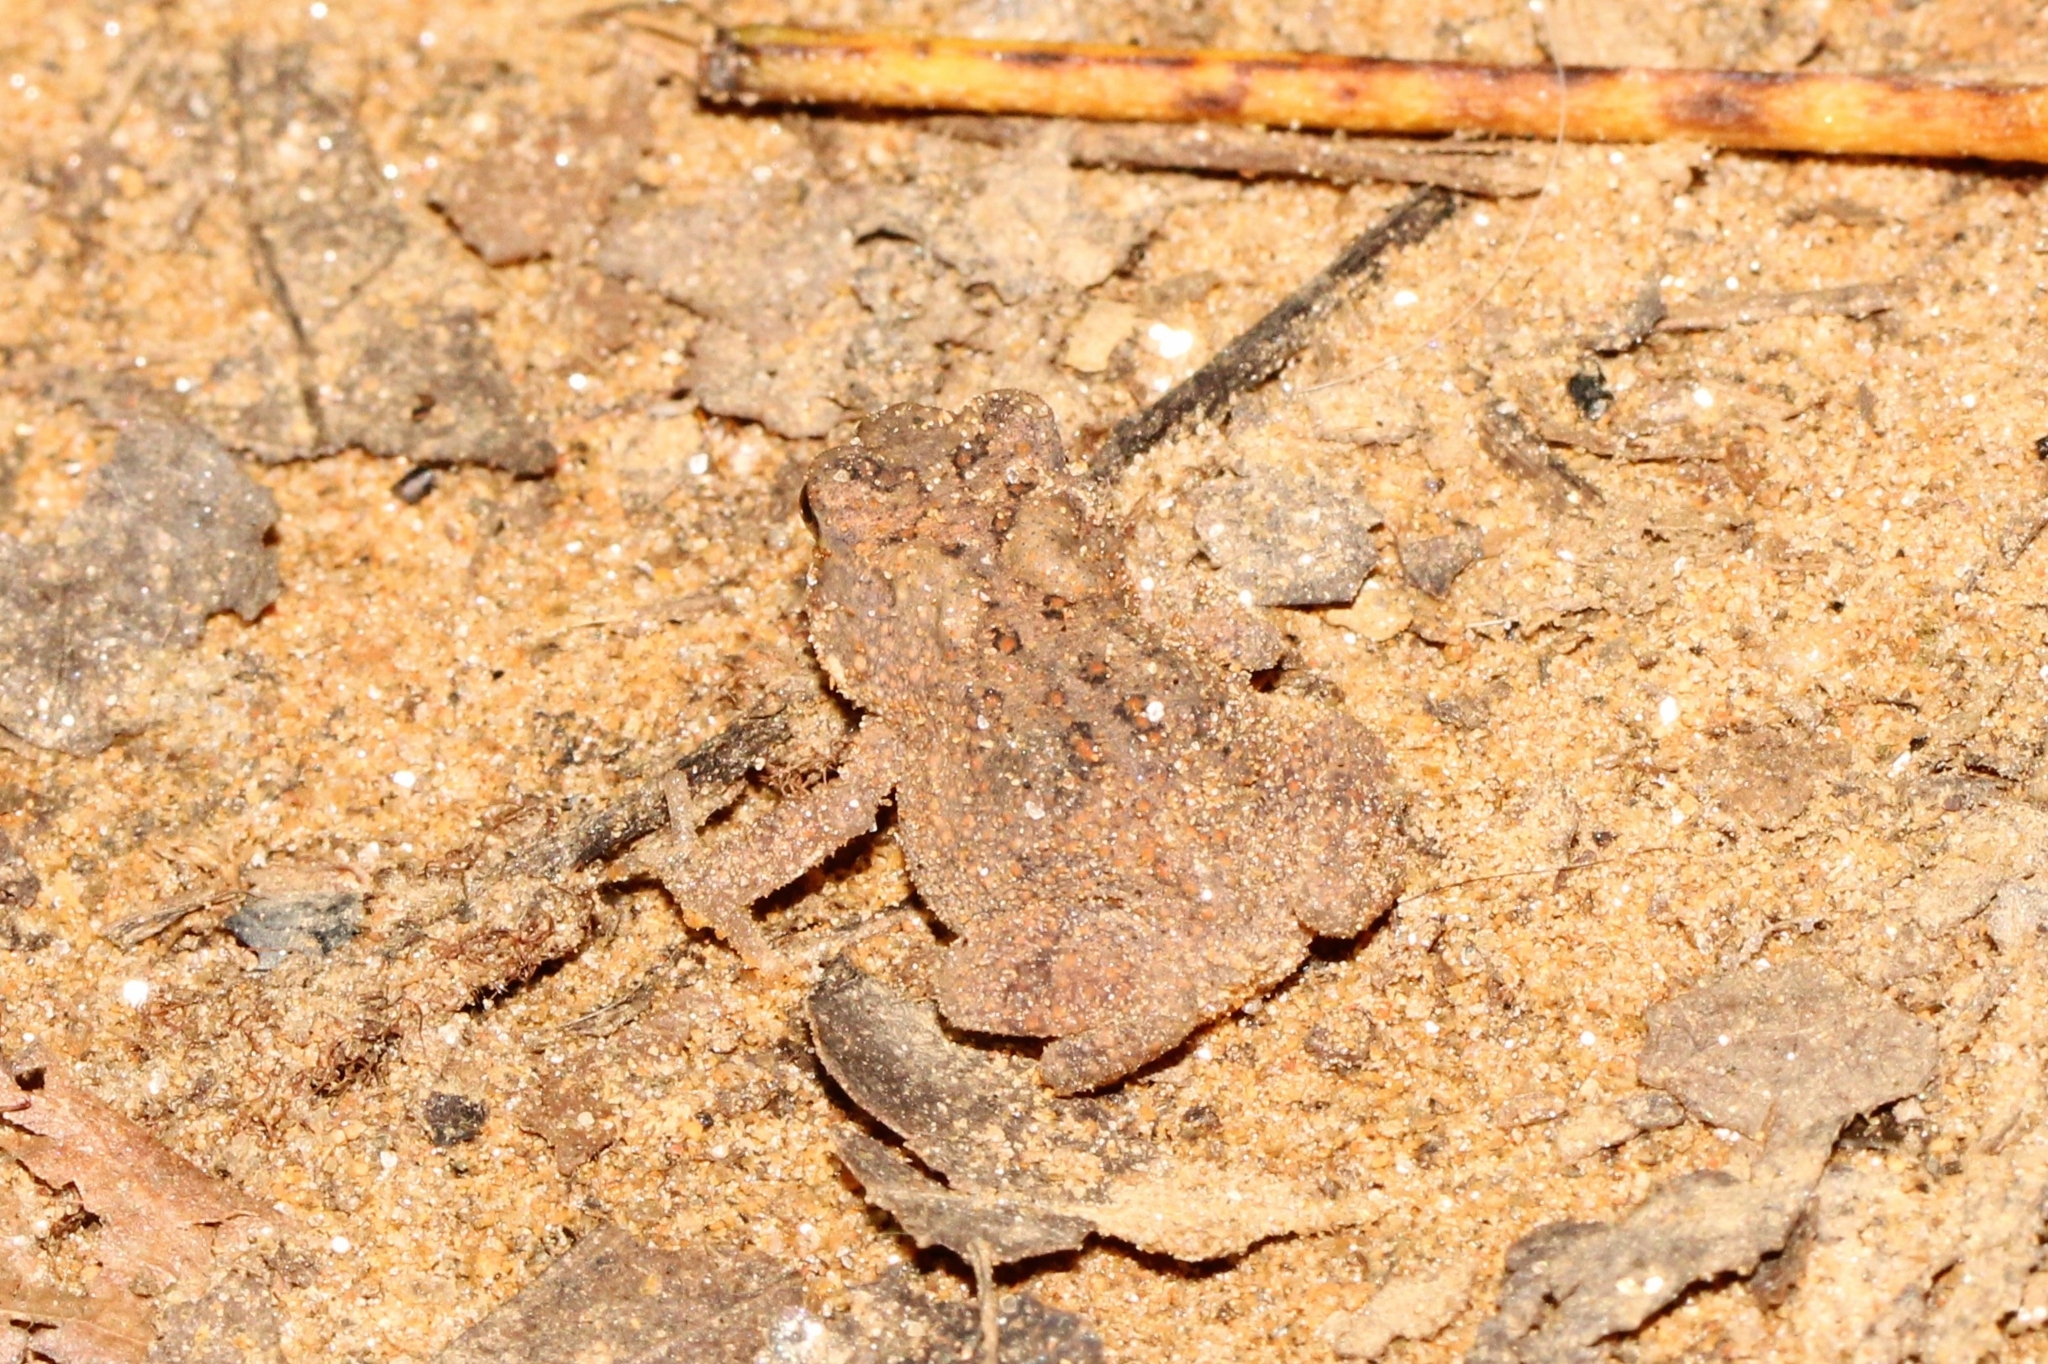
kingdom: Animalia
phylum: Chordata
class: Amphibia
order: Anura
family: Bufonidae
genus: Anaxyrus
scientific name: Anaxyrus americanus
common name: American toad
